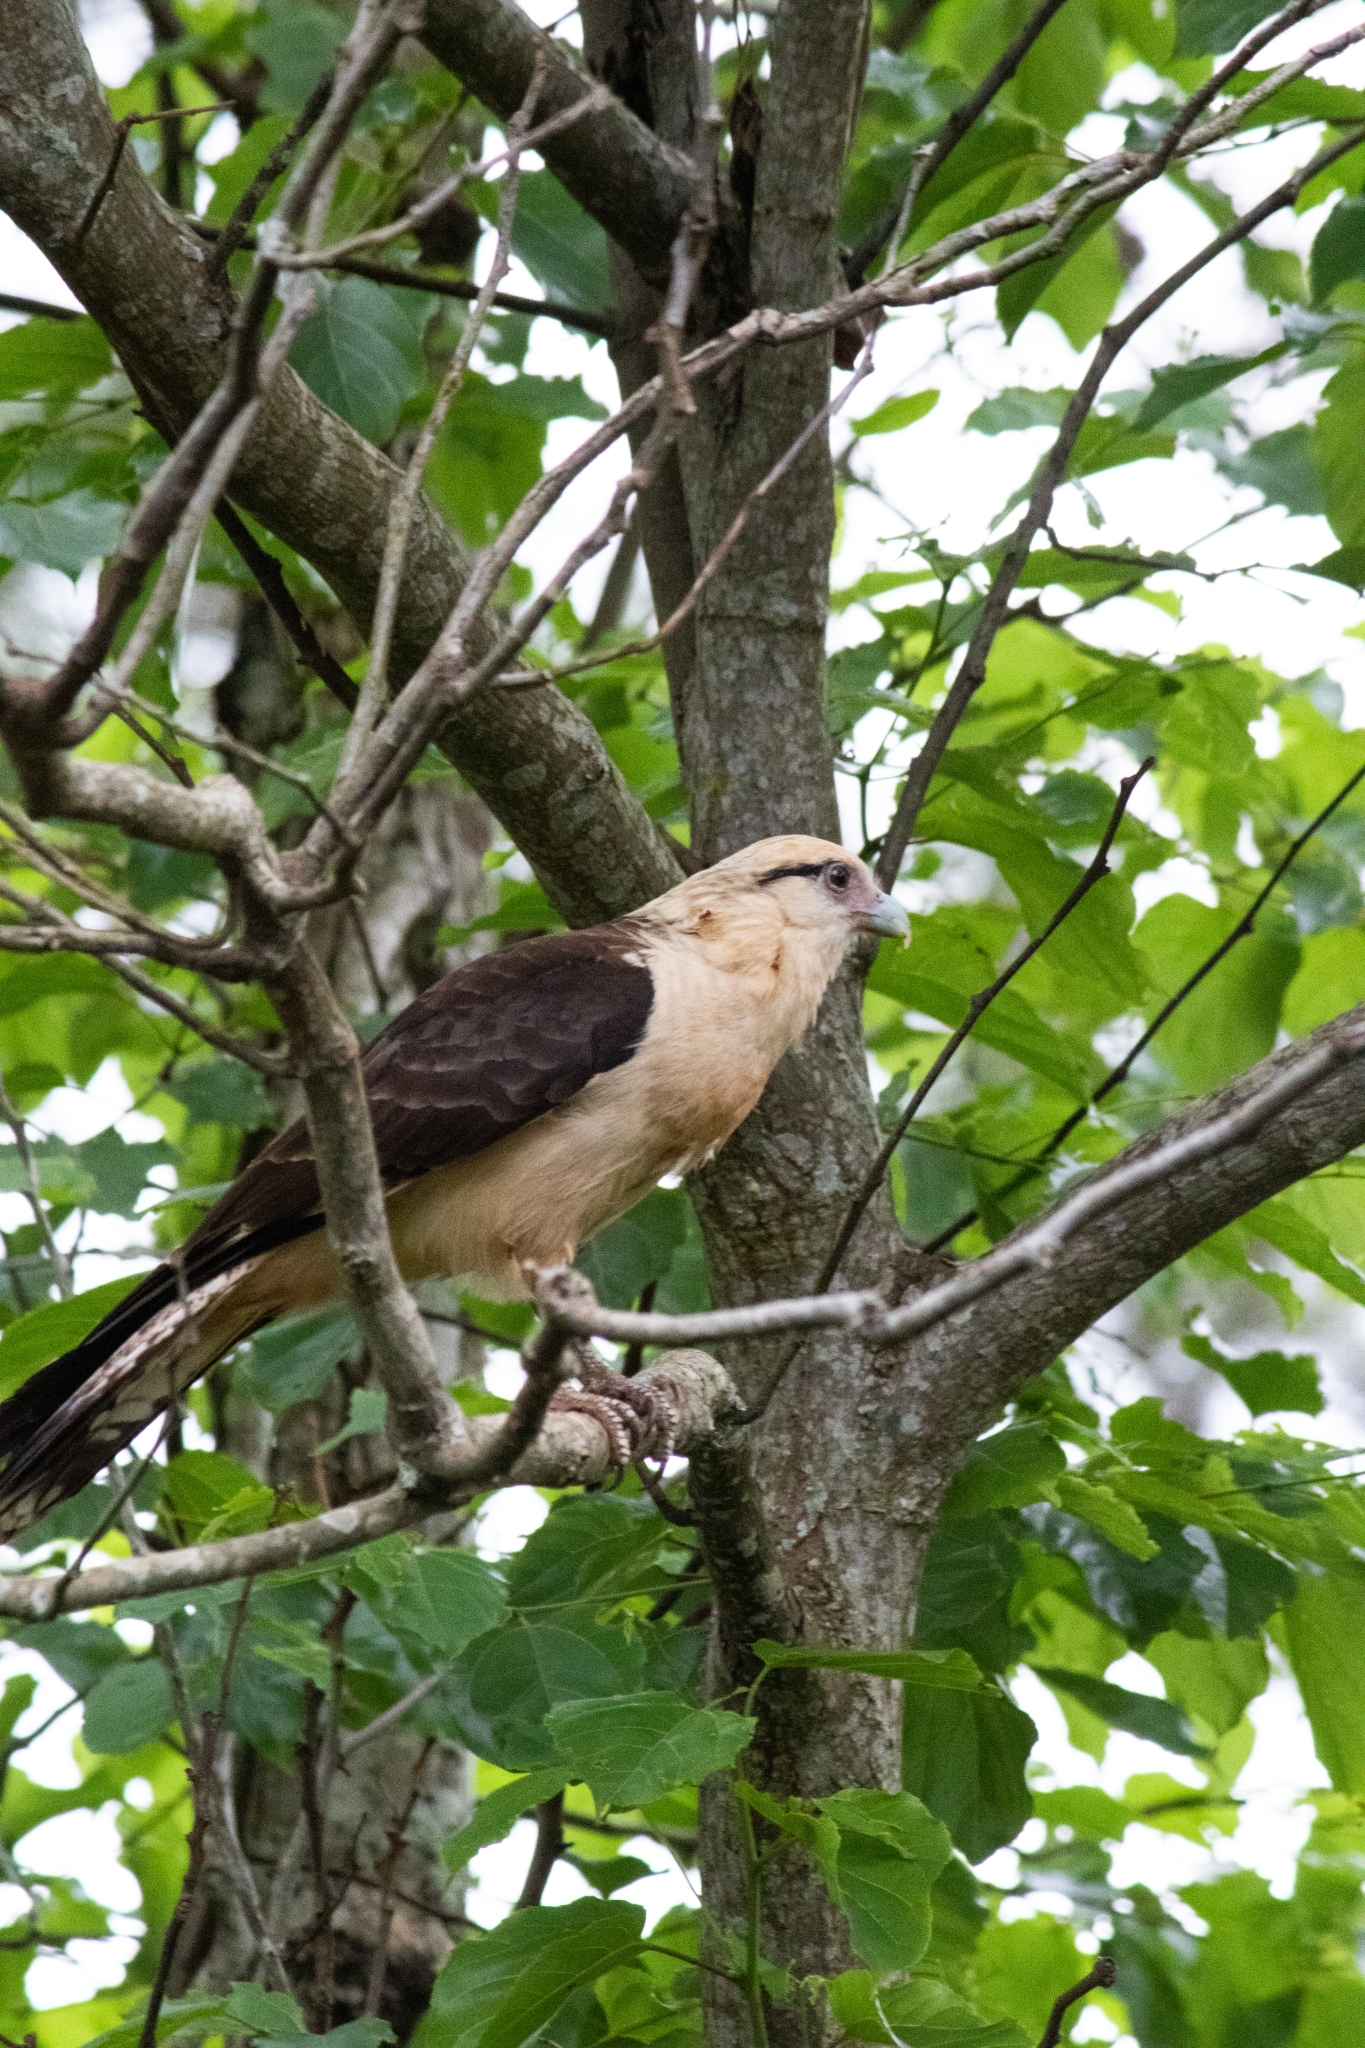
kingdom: Animalia
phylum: Chordata
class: Aves
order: Falconiformes
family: Falconidae
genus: Daptrius
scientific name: Daptrius
